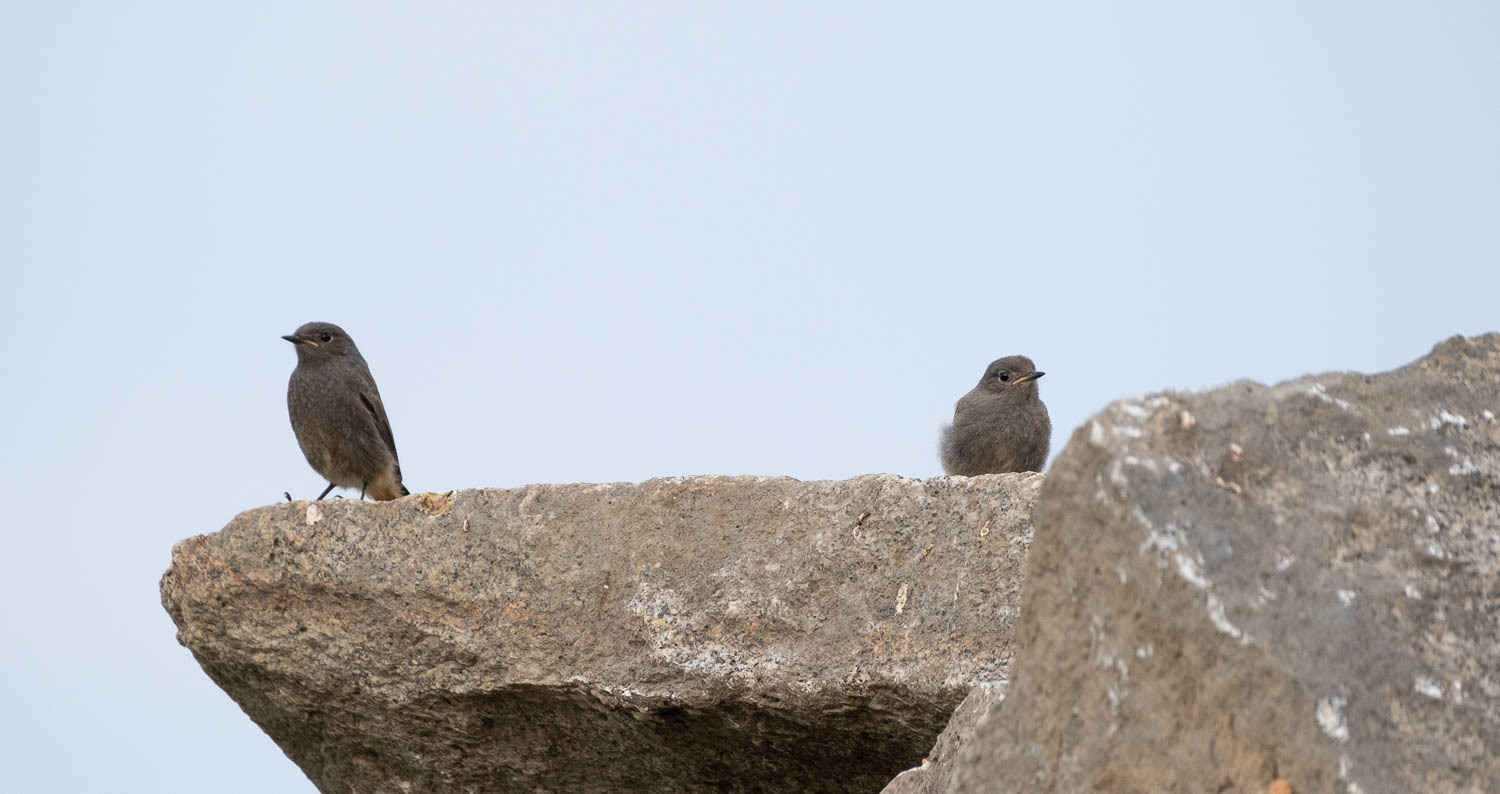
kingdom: Animalia
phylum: Chordata
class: Aves
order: Passeriformes
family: Muscicapidae
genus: Phoenicurus
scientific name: Phoenicurus ochruros
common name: Black redstart
